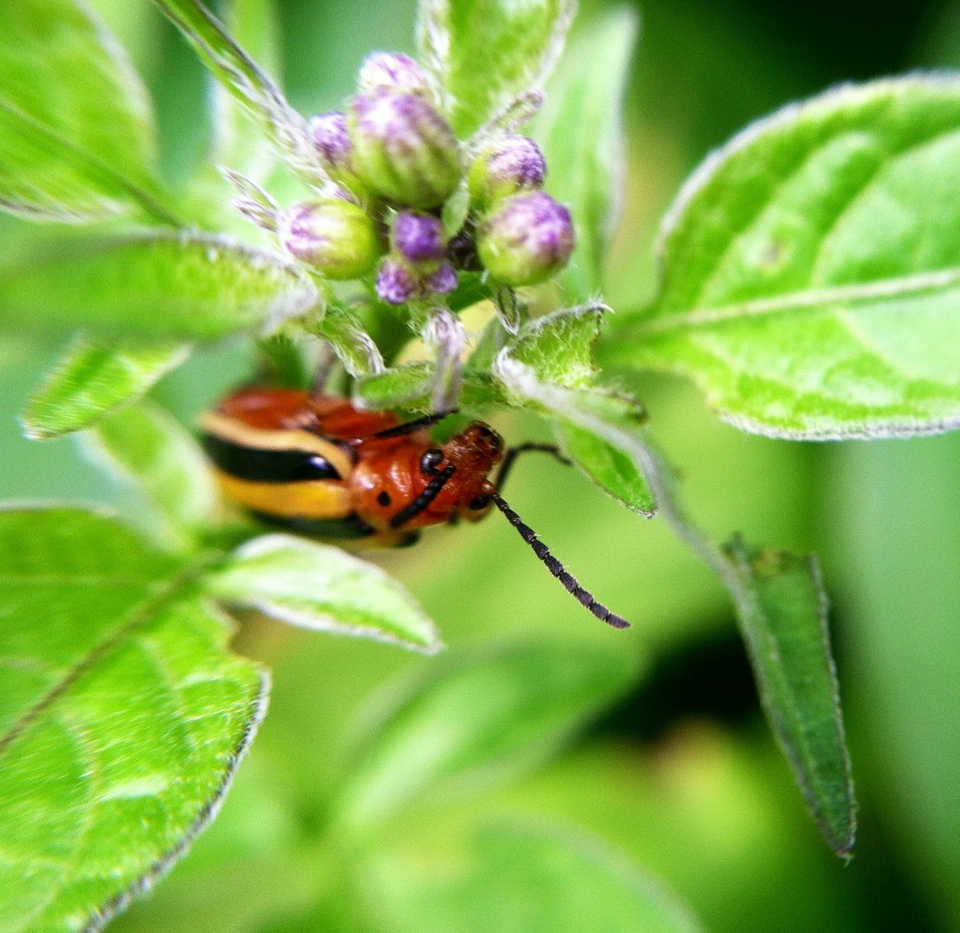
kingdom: Animalia
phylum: Arthropoda
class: Insecta
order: Coleoptera
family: Chrysomelidae
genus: Lema
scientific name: Lema daturaphila
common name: Leaf beetle
